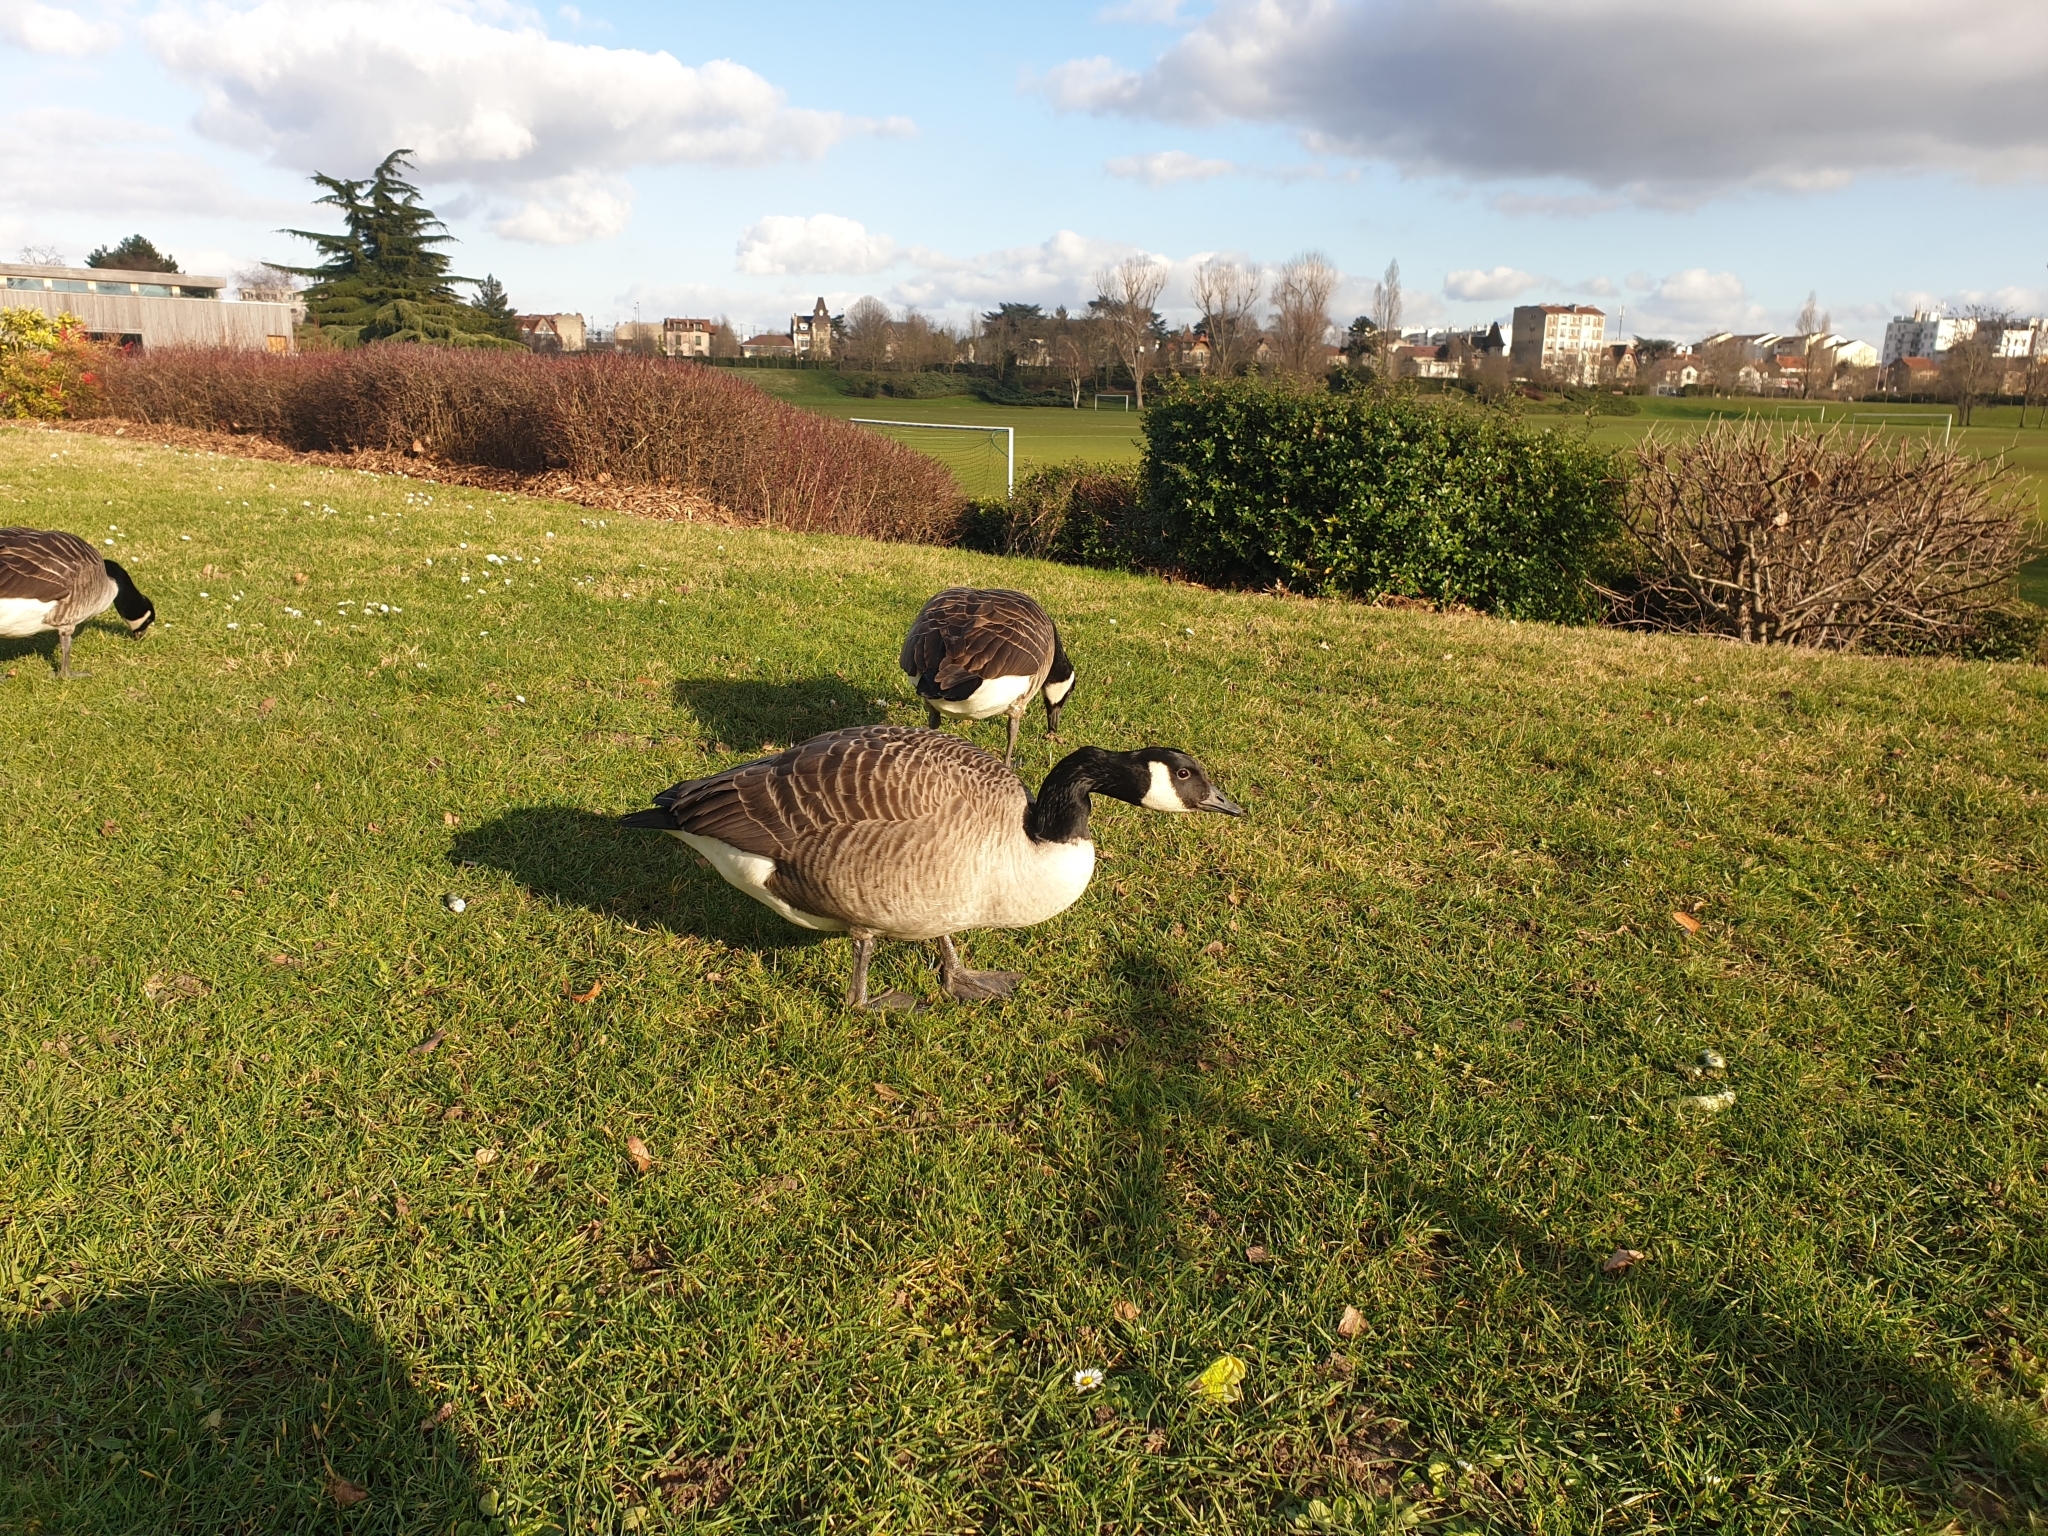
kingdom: Animalia
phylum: Chordata
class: Aves
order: Anseriformes
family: Anatidae
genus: Branta
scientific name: Branta canadensis
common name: Canada goose
